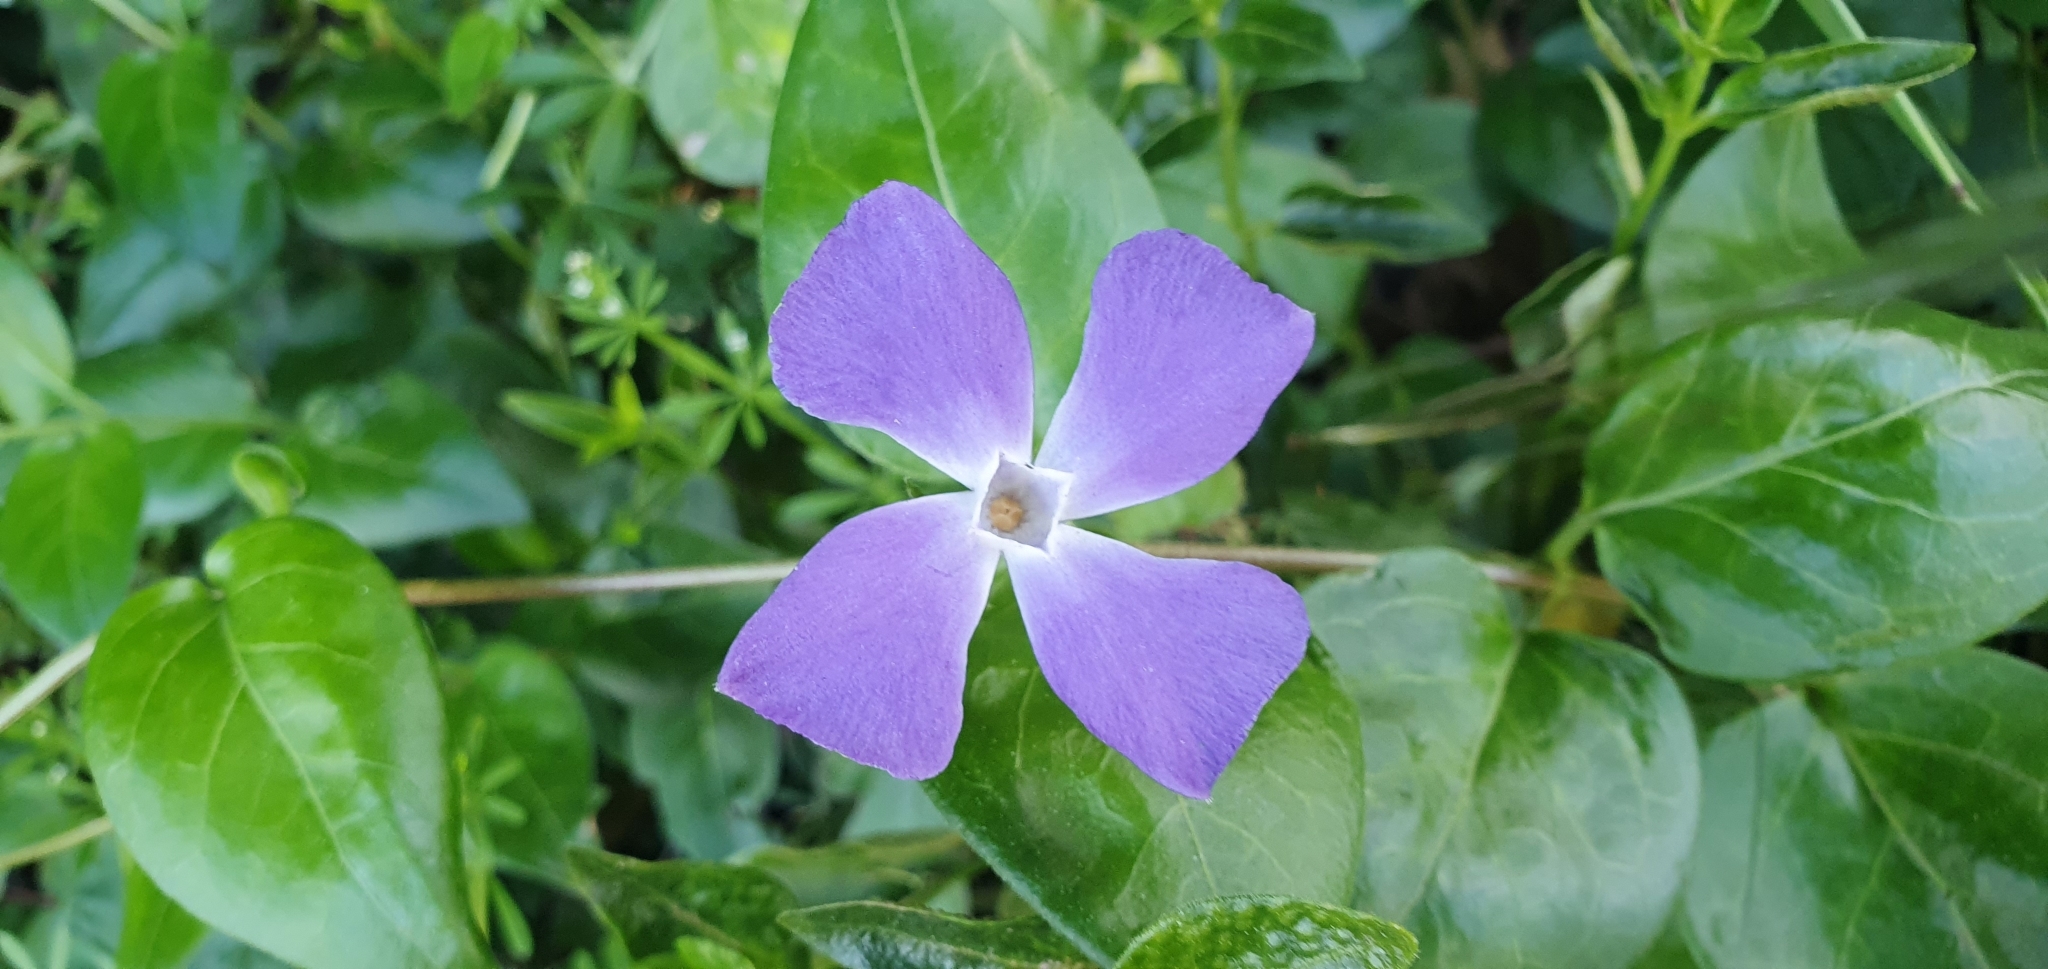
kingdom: Plantae
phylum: Tracheophyta
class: Magnoliopsida
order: Gentianales
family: Apocynaceae
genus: Vinca
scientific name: Vinca major
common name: Greater periwinkle
